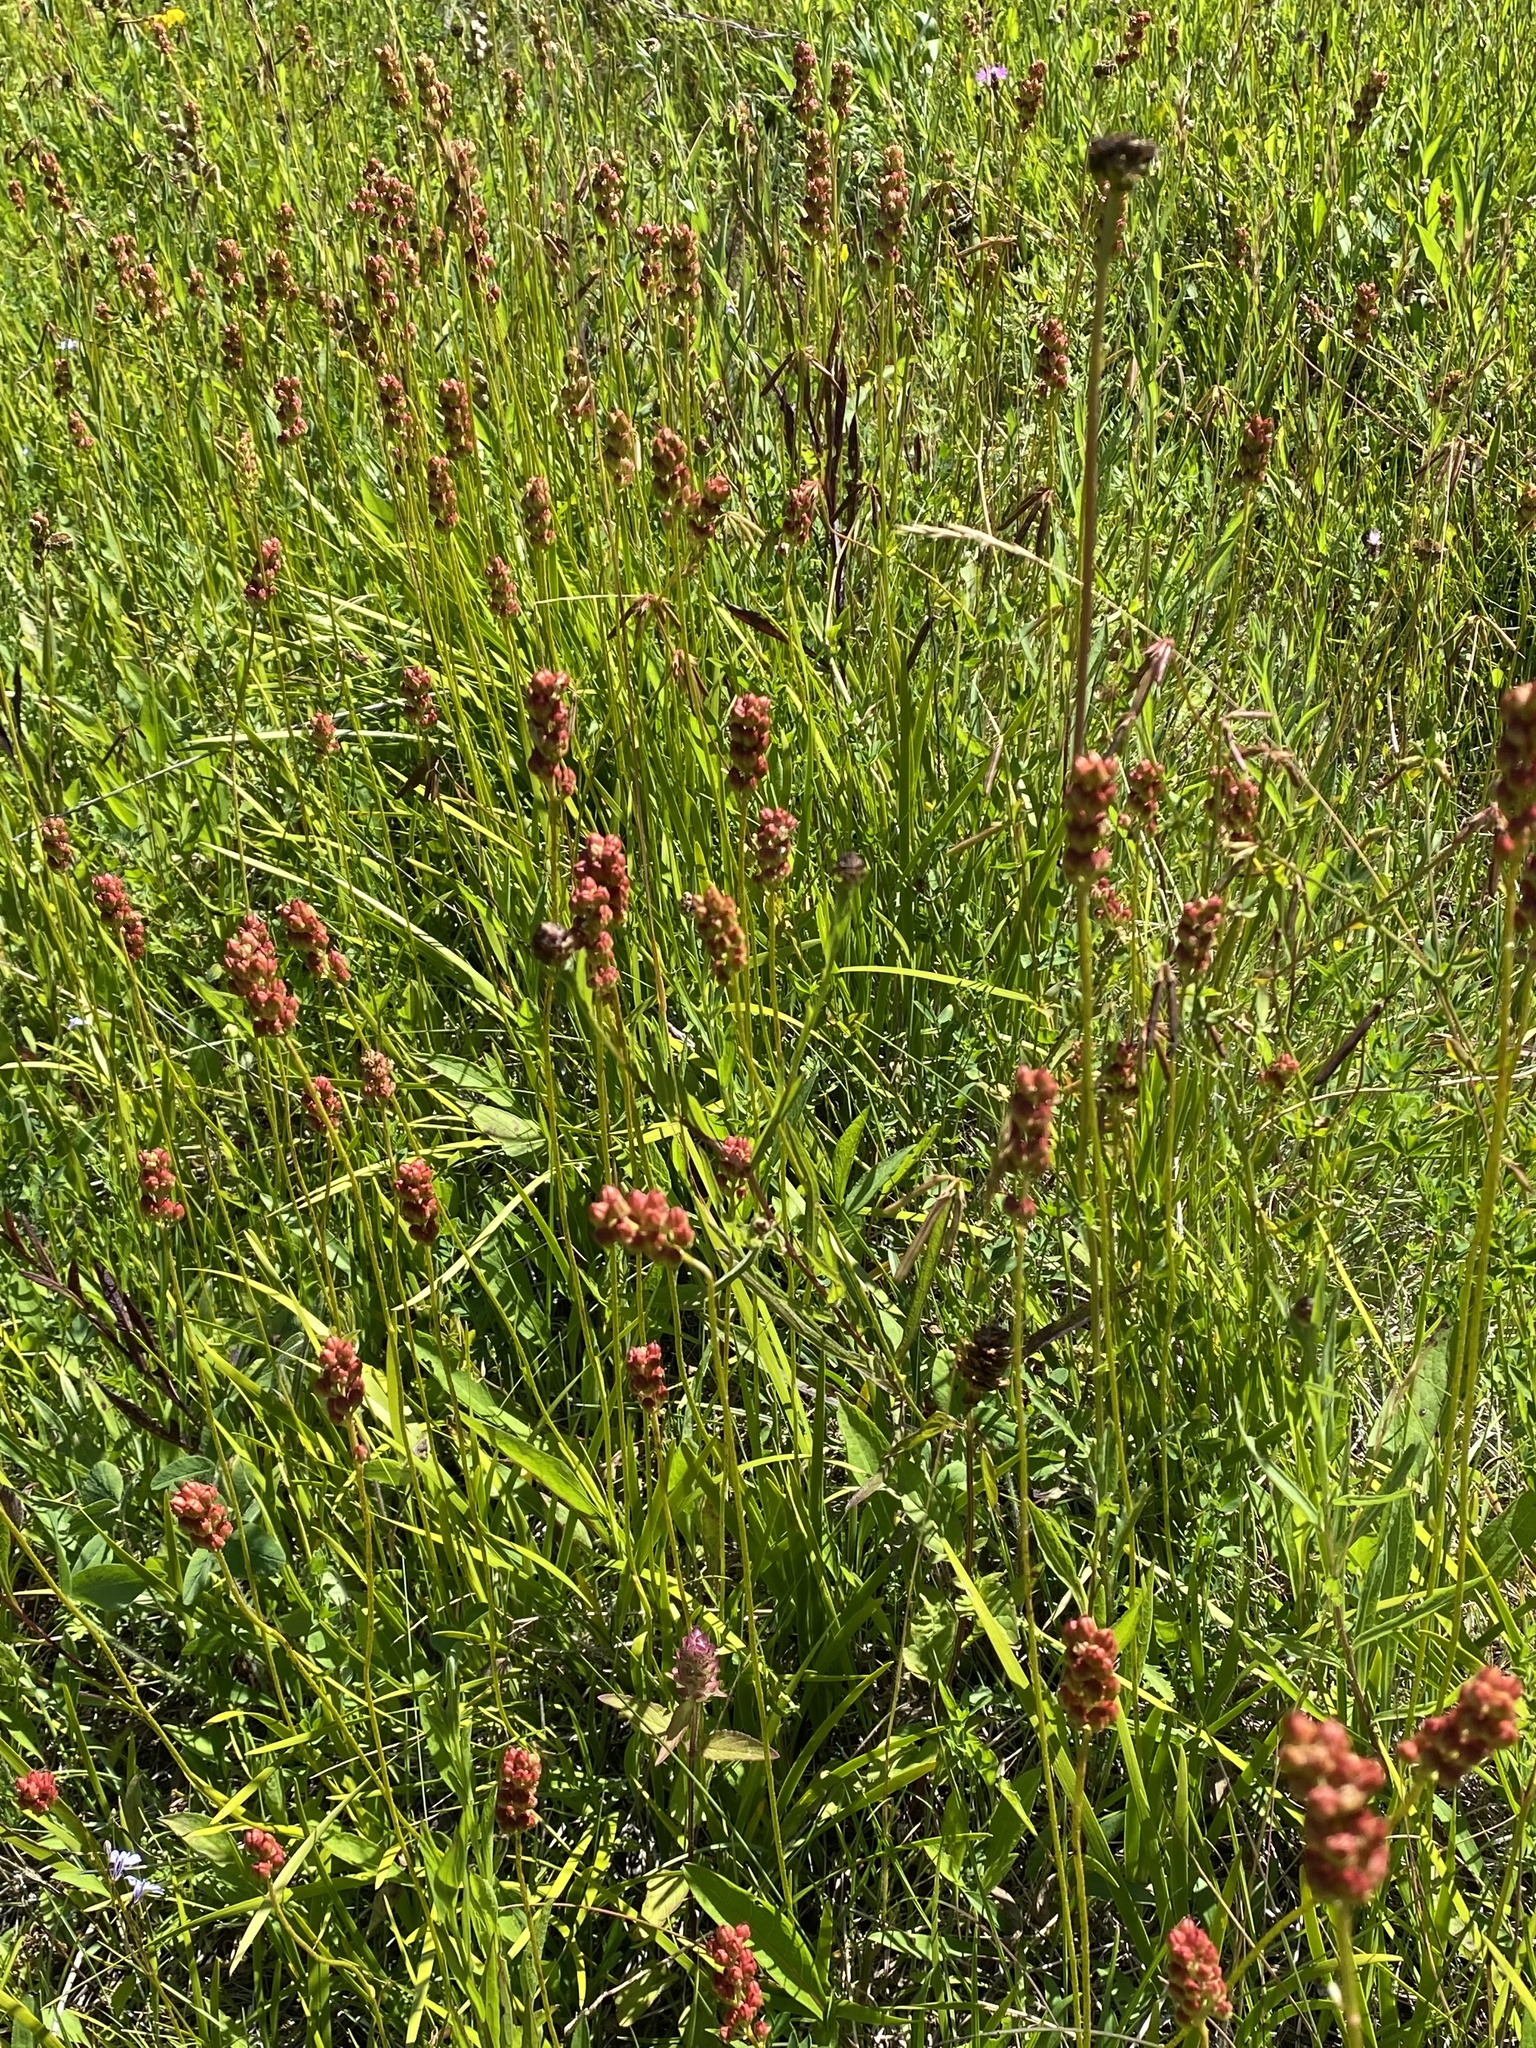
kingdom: Plantae
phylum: Tracheophyta
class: Liliopsida
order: Alismatales
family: Tofieldiaceae
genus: Triantha
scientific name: Triantha glutinosa
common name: Glutinous tofieldia
